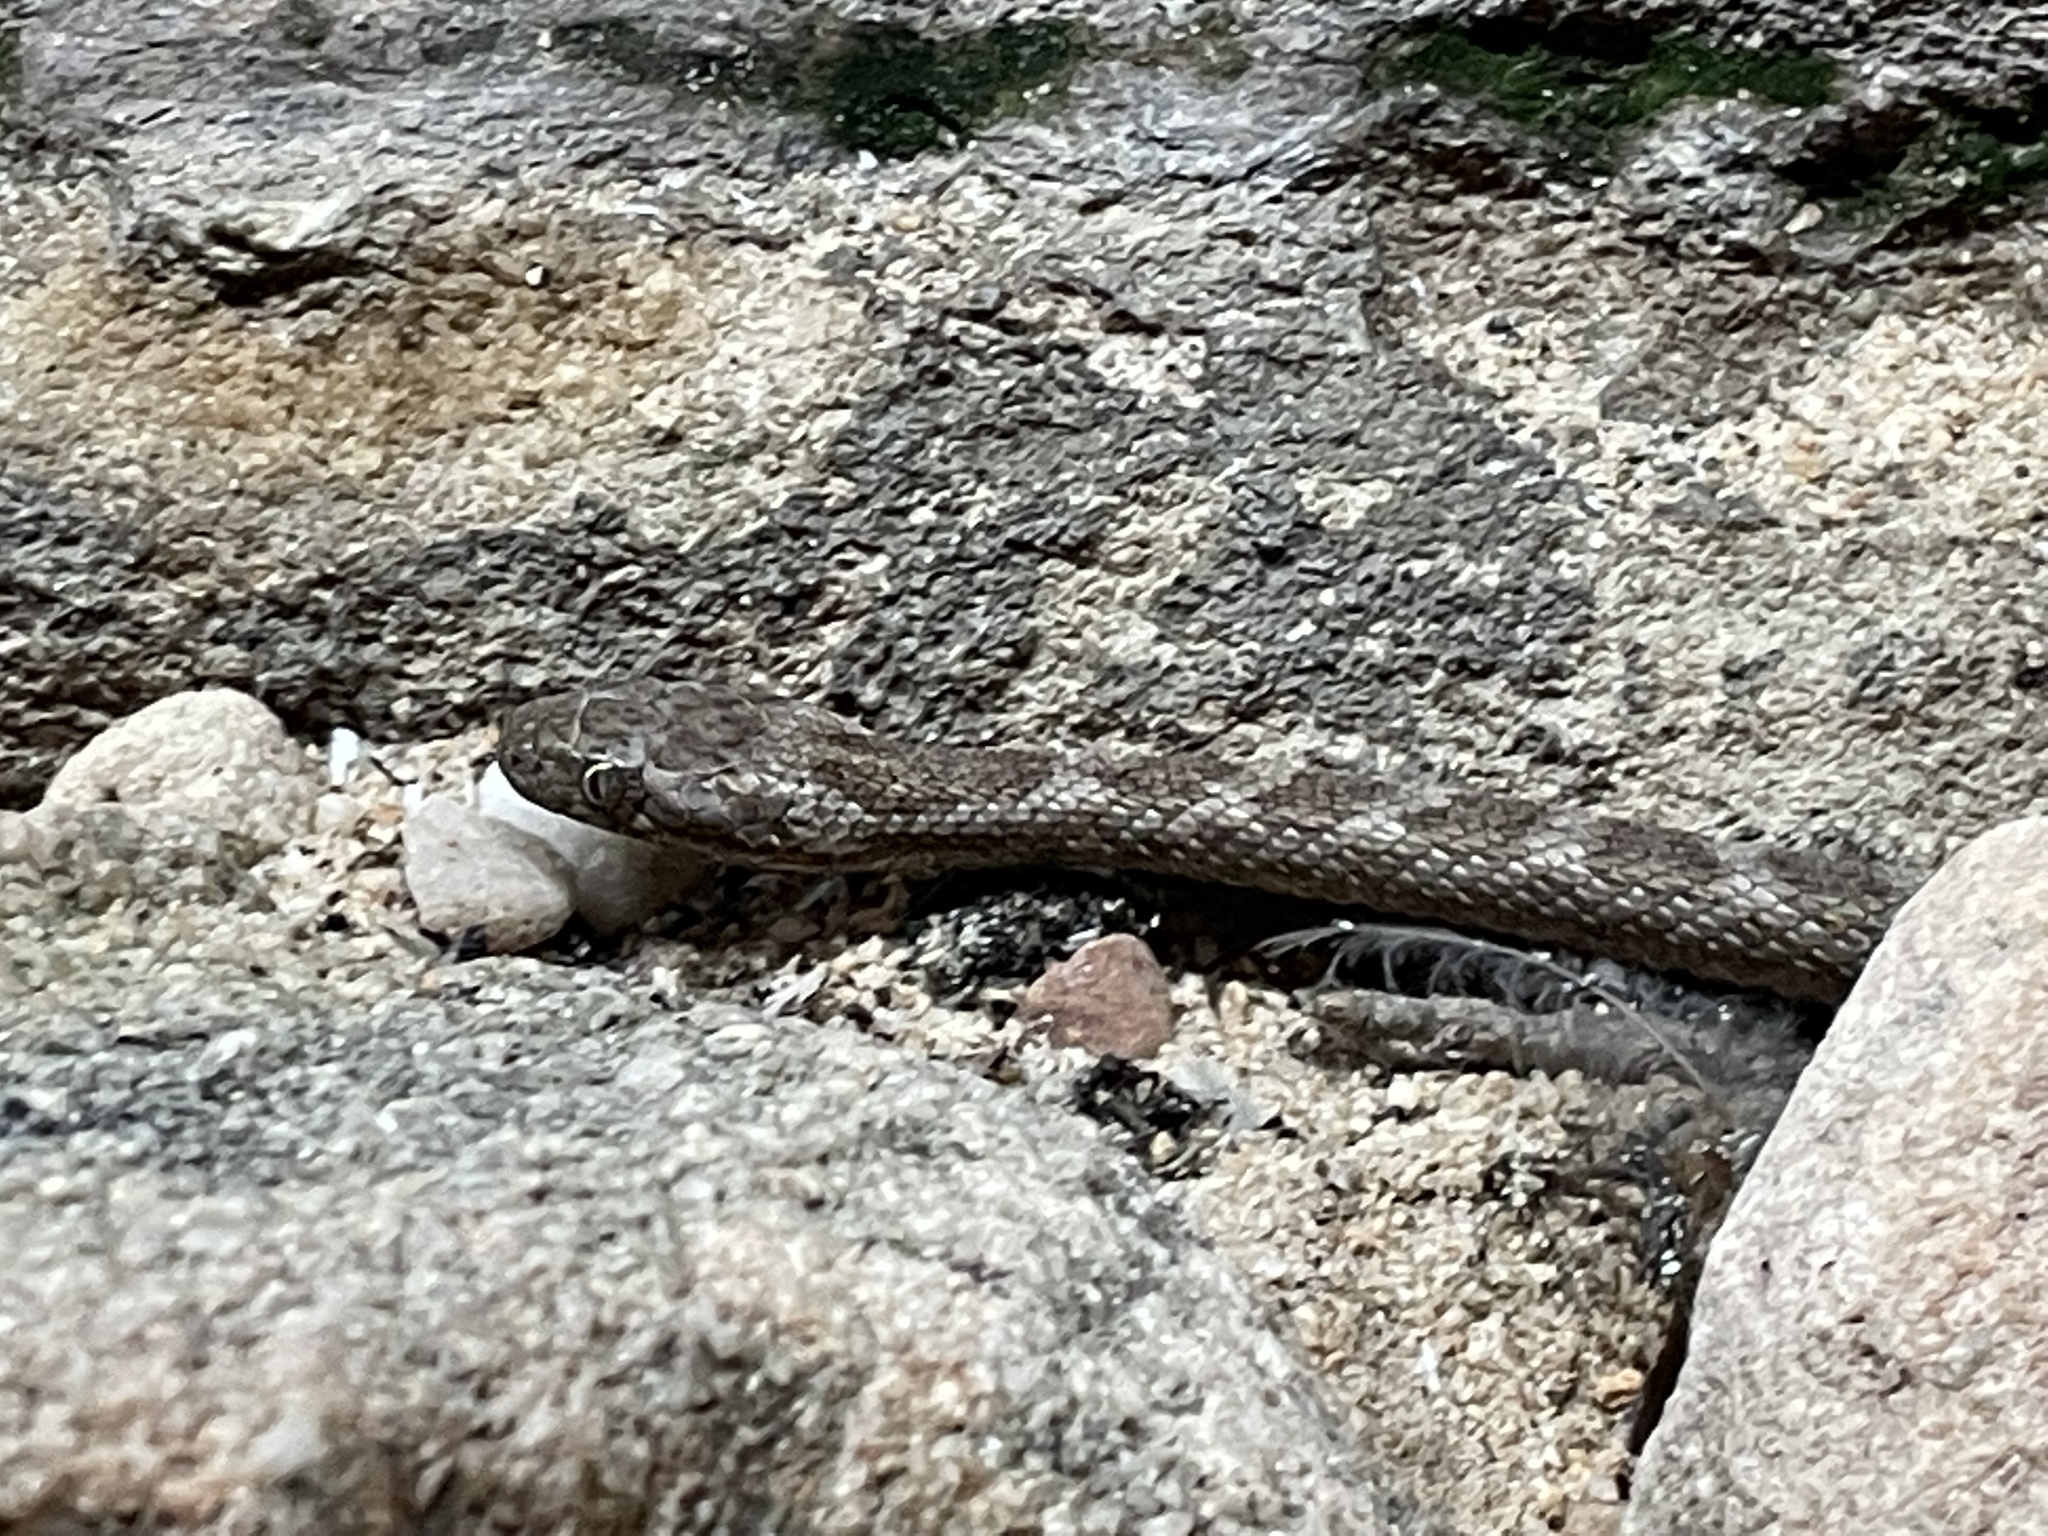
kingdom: Animalia
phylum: Chordata
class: Squamata
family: Lamprophiidae
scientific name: Lamprophiidae
